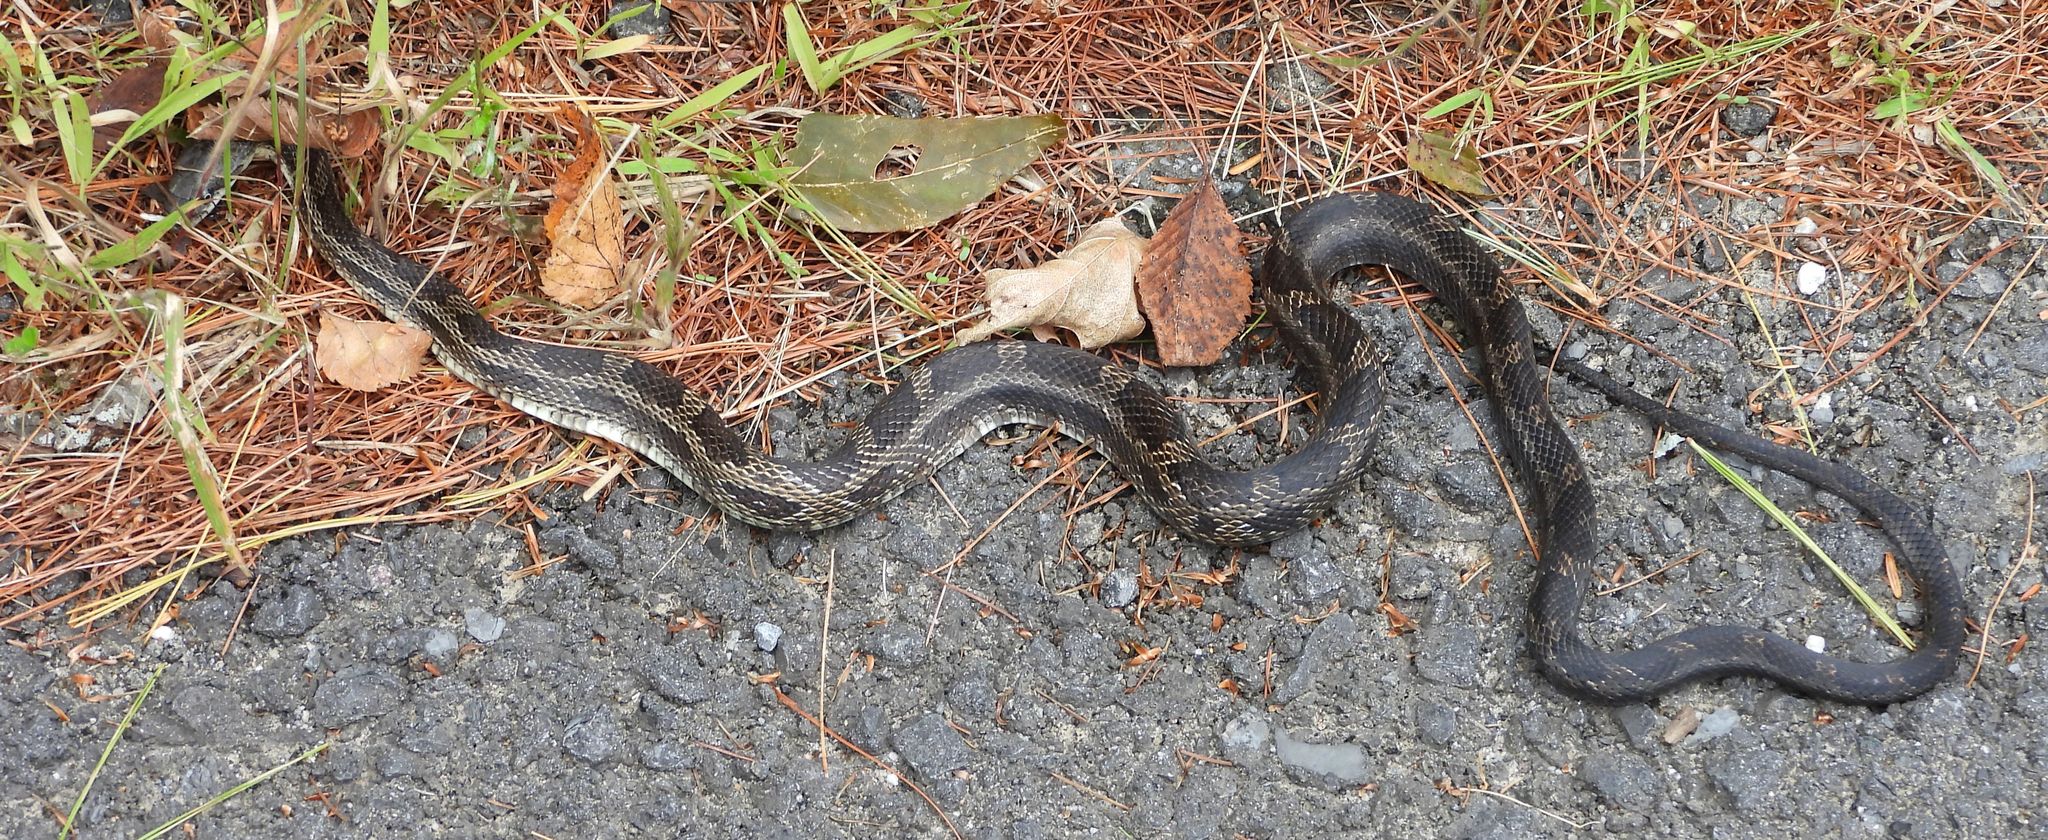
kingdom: Animalia
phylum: Chordata
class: Squamata
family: Colubridae
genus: Pantherophis
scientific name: Pantherophis spiloides
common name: Gray rat snake
